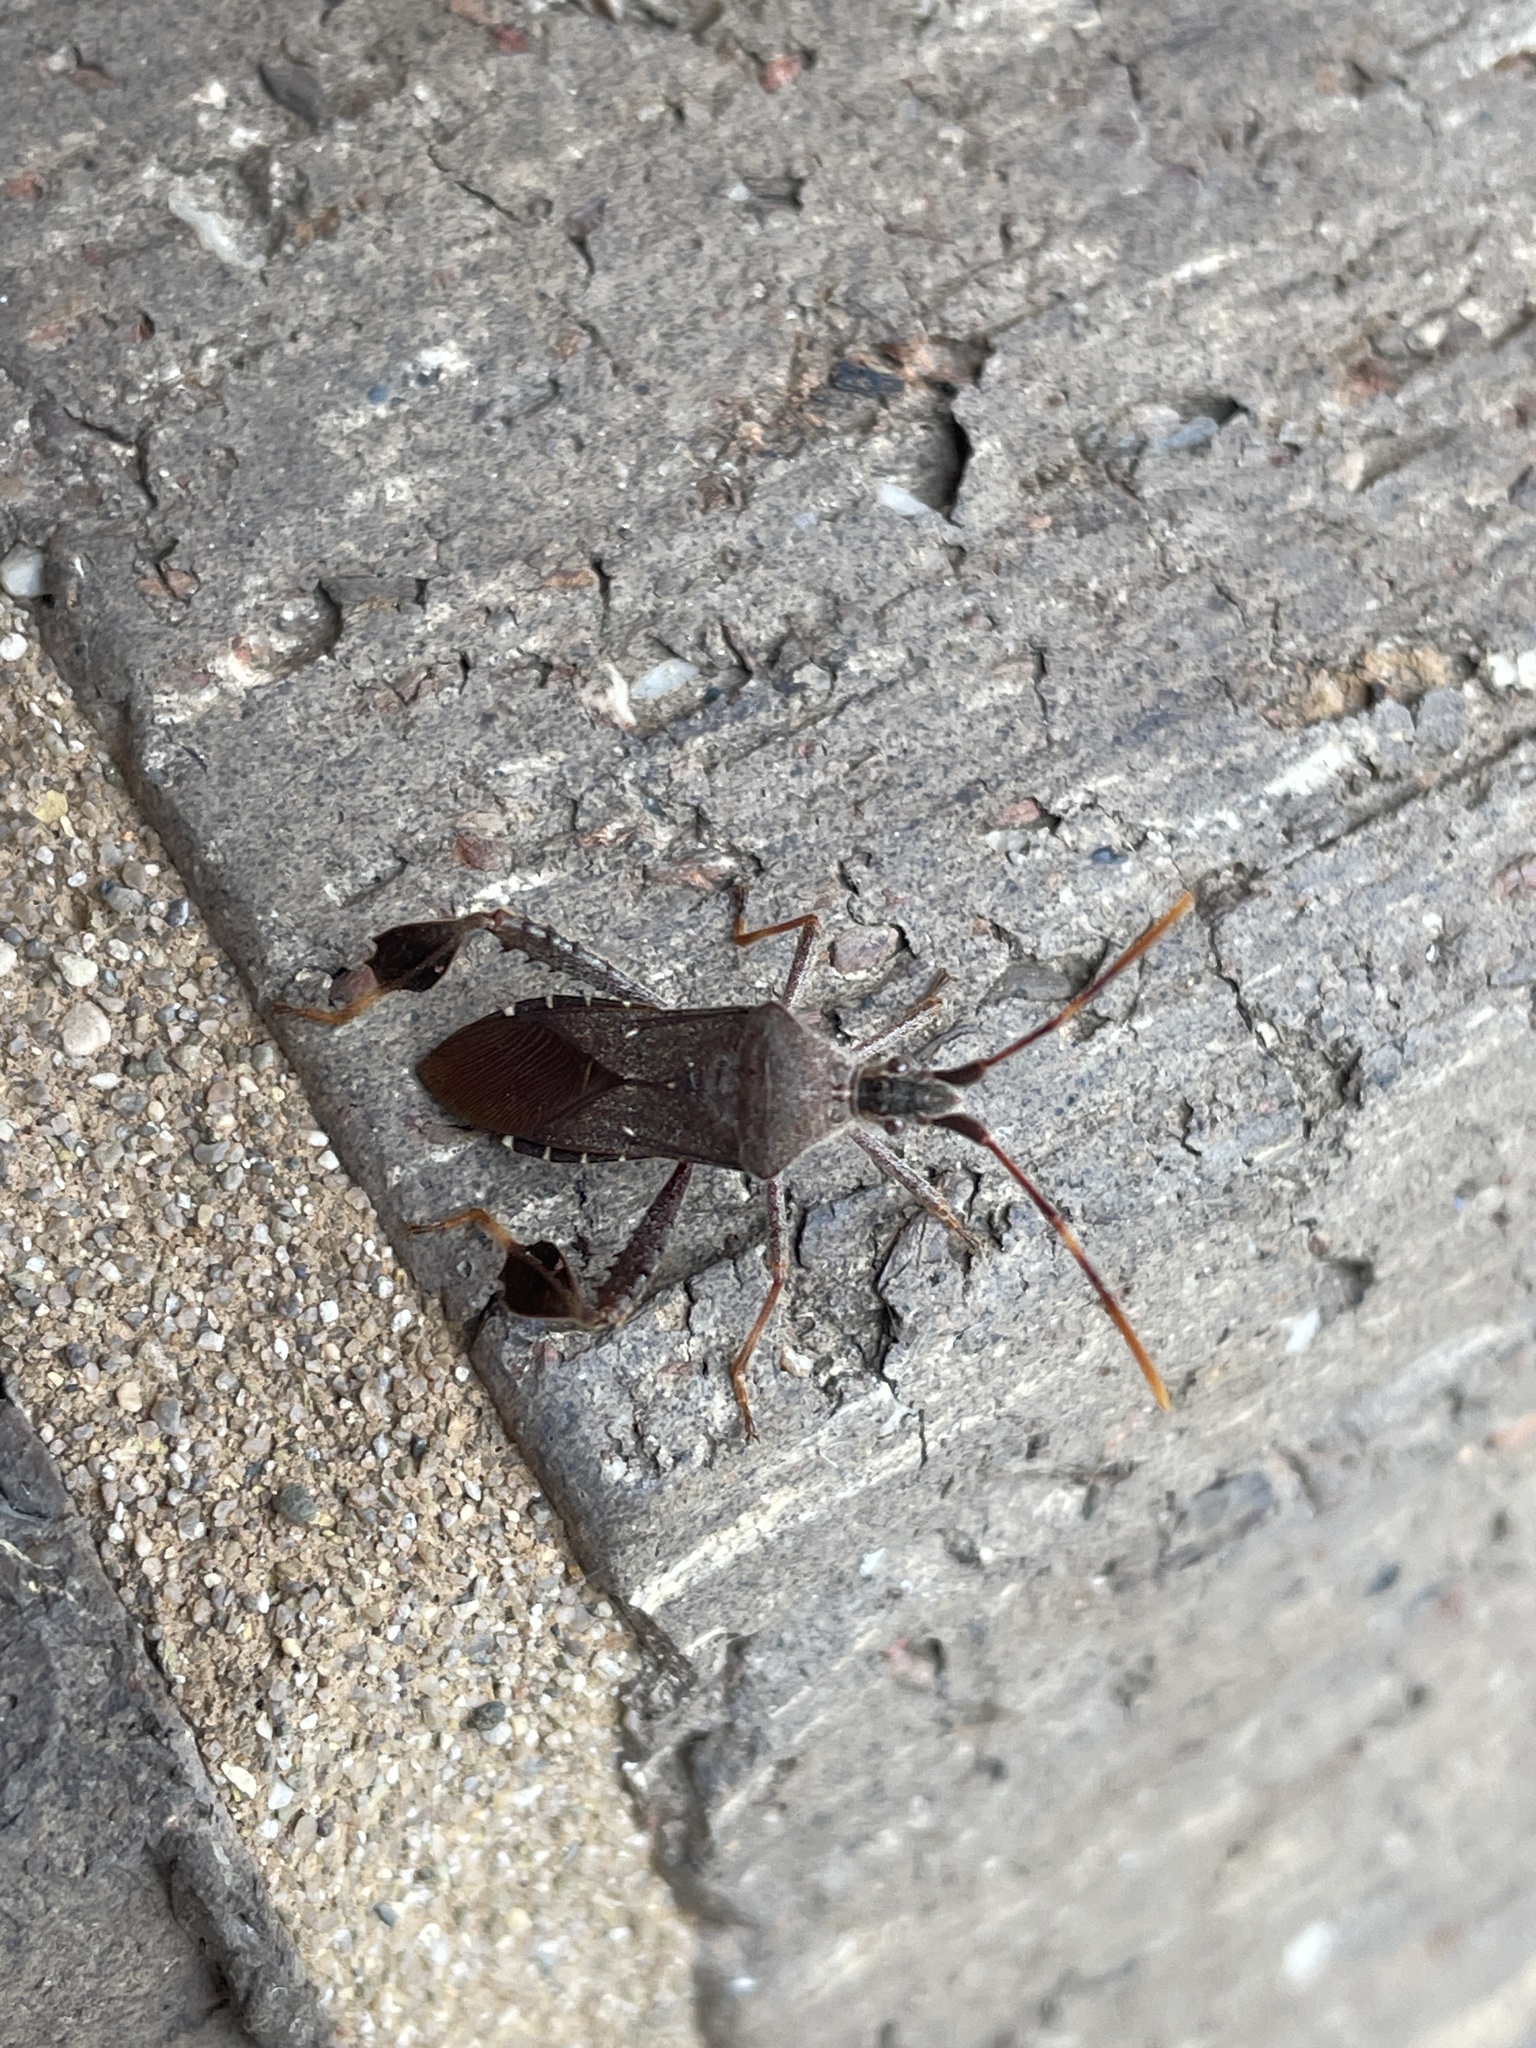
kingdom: Animalia
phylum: Arthropoda
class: Insecta
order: Hemiptera
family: Coreidae
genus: Leptoglossus
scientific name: Leptoglossus oppositus
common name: Northern leaf-footed bug
